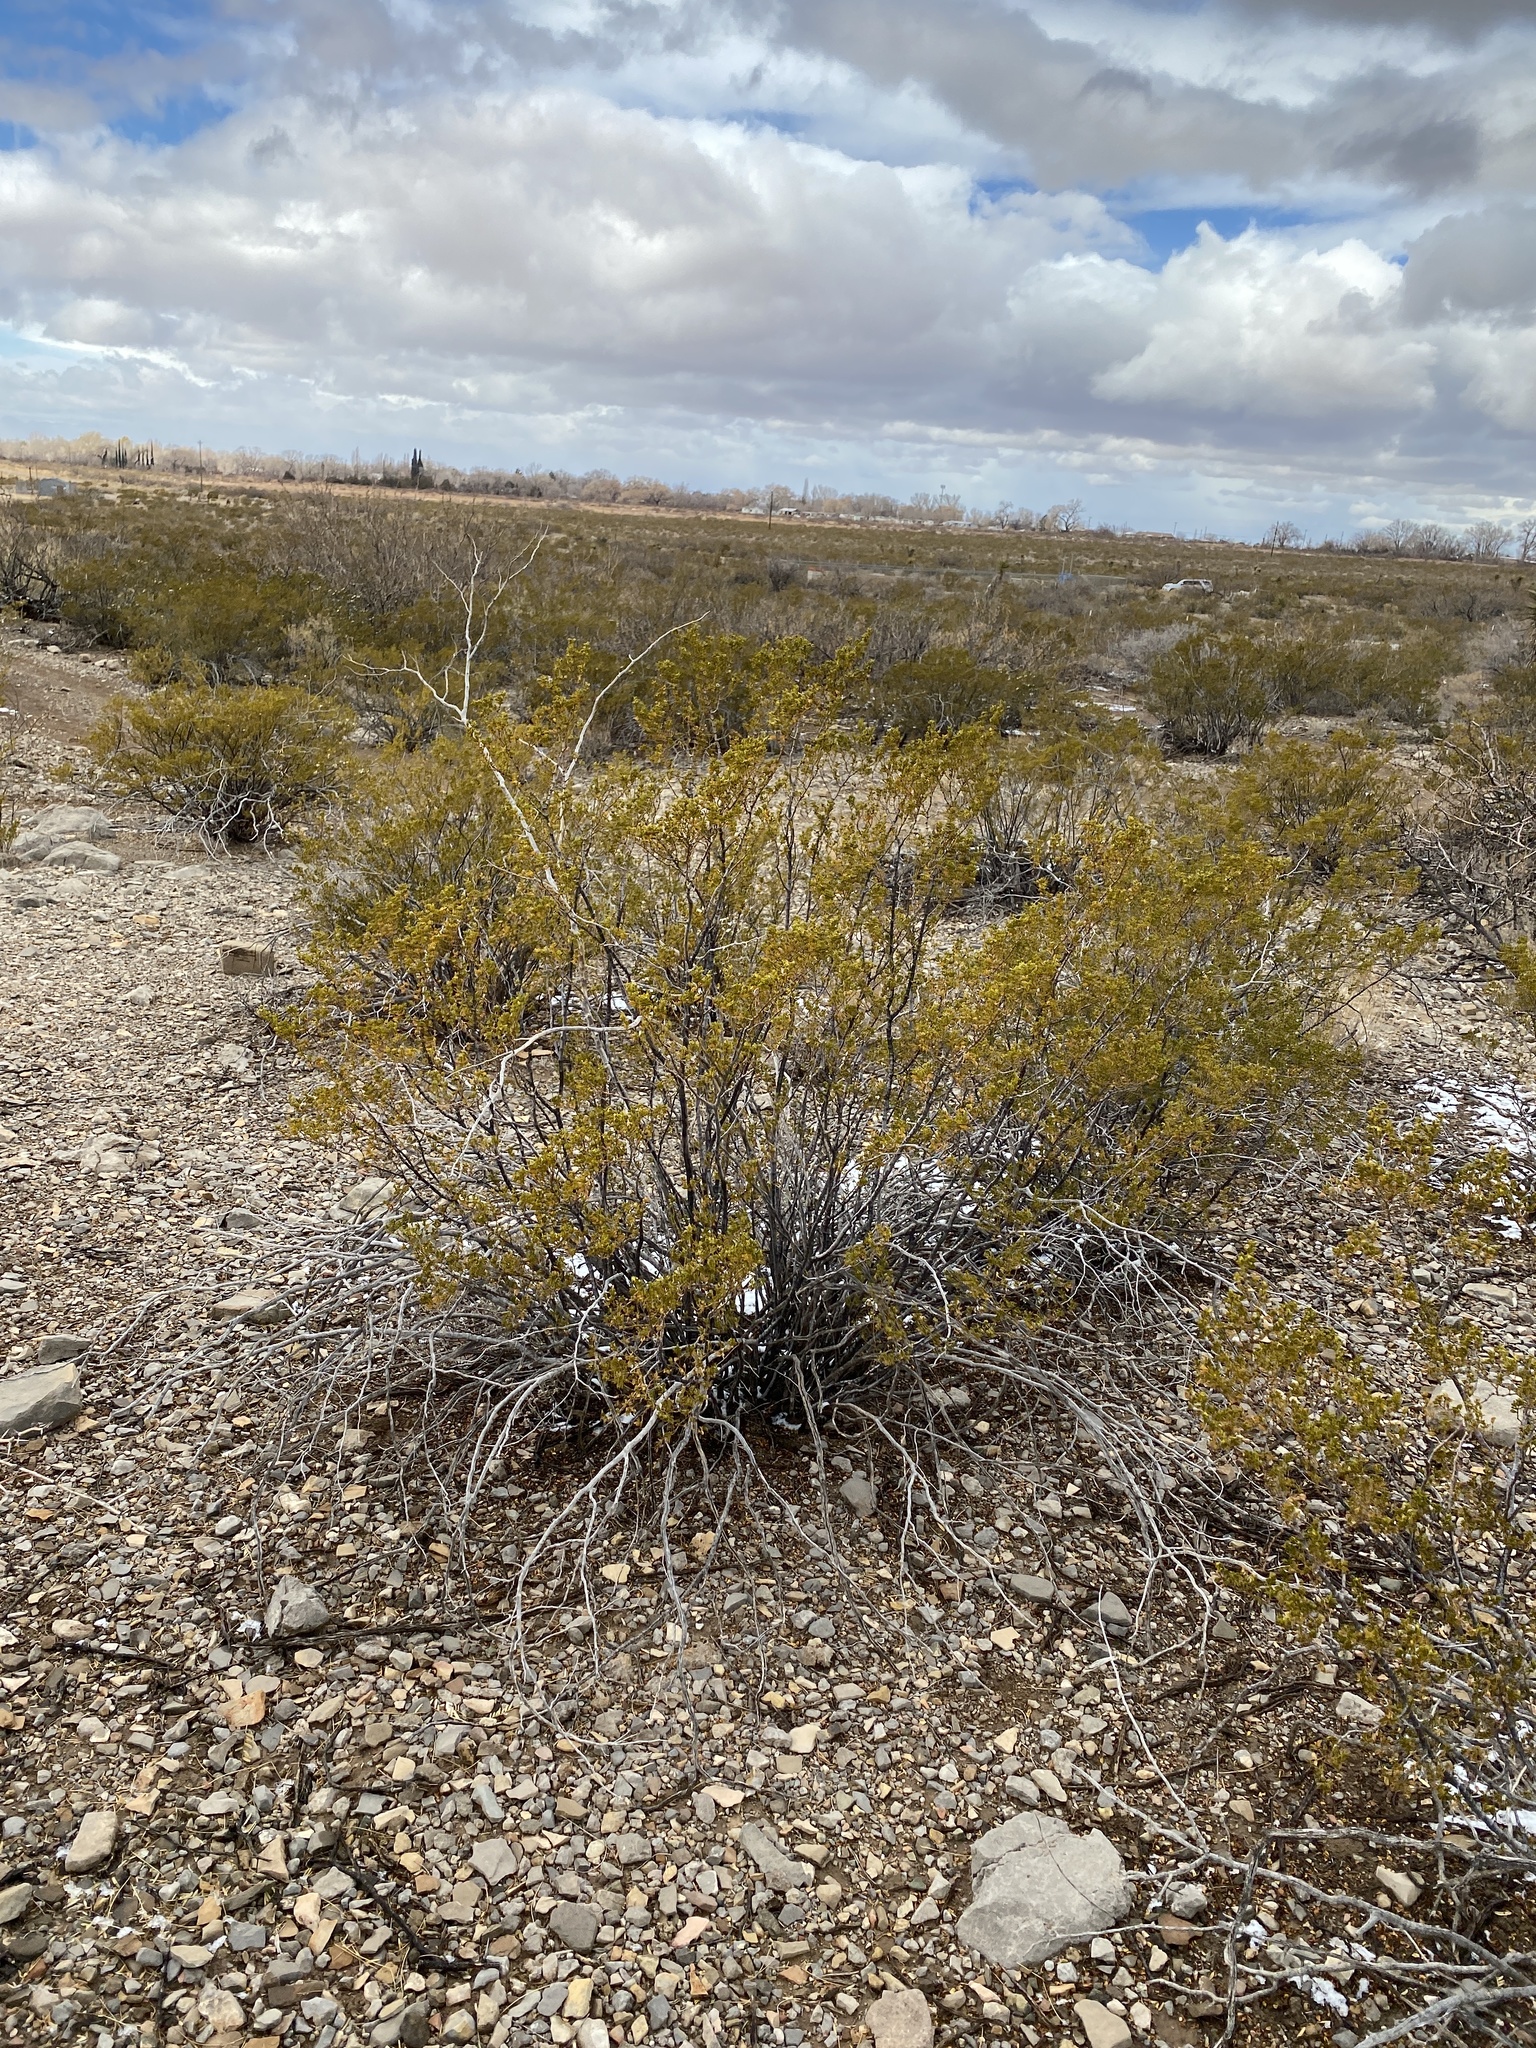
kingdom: Plantae
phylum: Tracheophyta
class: Magnoliopsida
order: Zygophyllales
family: Zygophyllaceae
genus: Larrea
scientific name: Larrea tridentata
